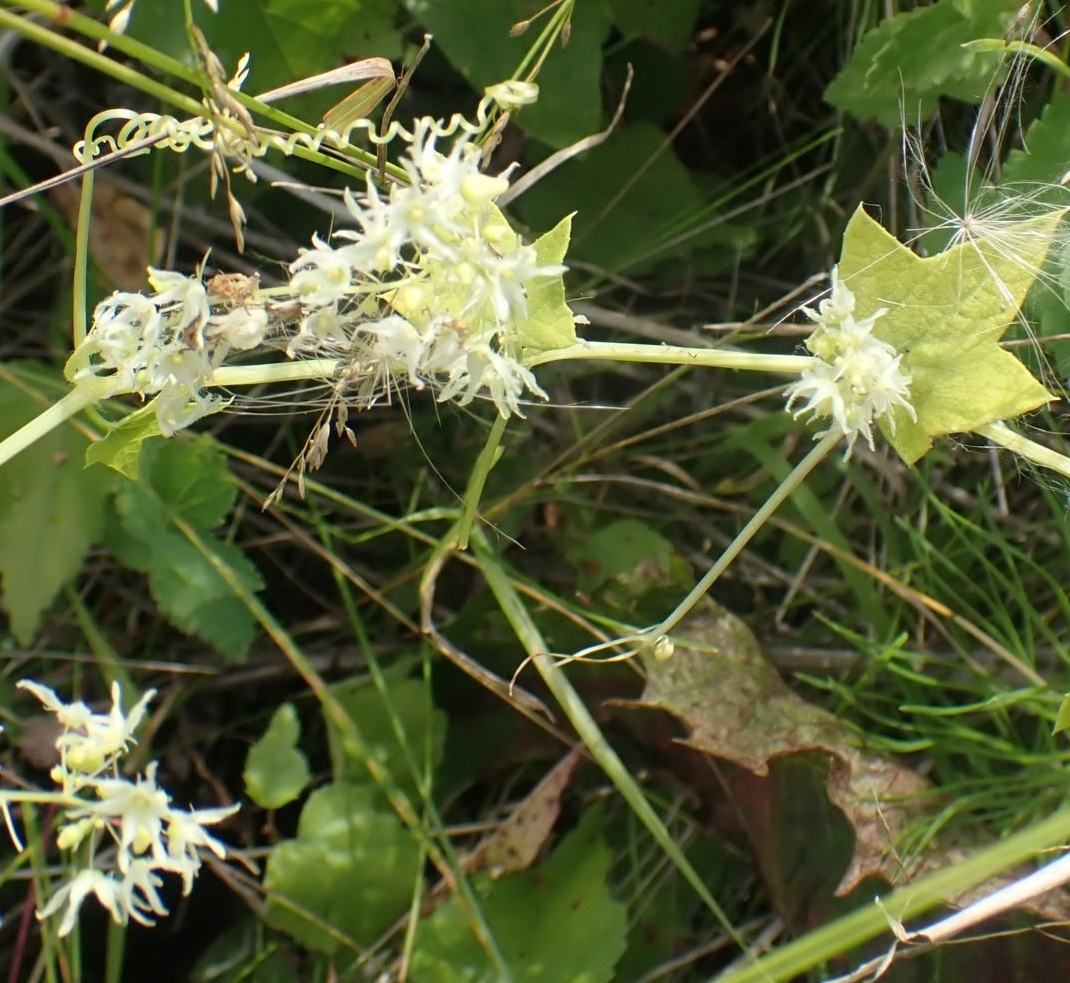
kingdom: Plantae
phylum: Tracheophyta
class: Magnoliopsida
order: Cucurbitales
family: Cucurbitaceae
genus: Echinocystis
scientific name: Echinocystis lobata
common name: Wild cucumber
